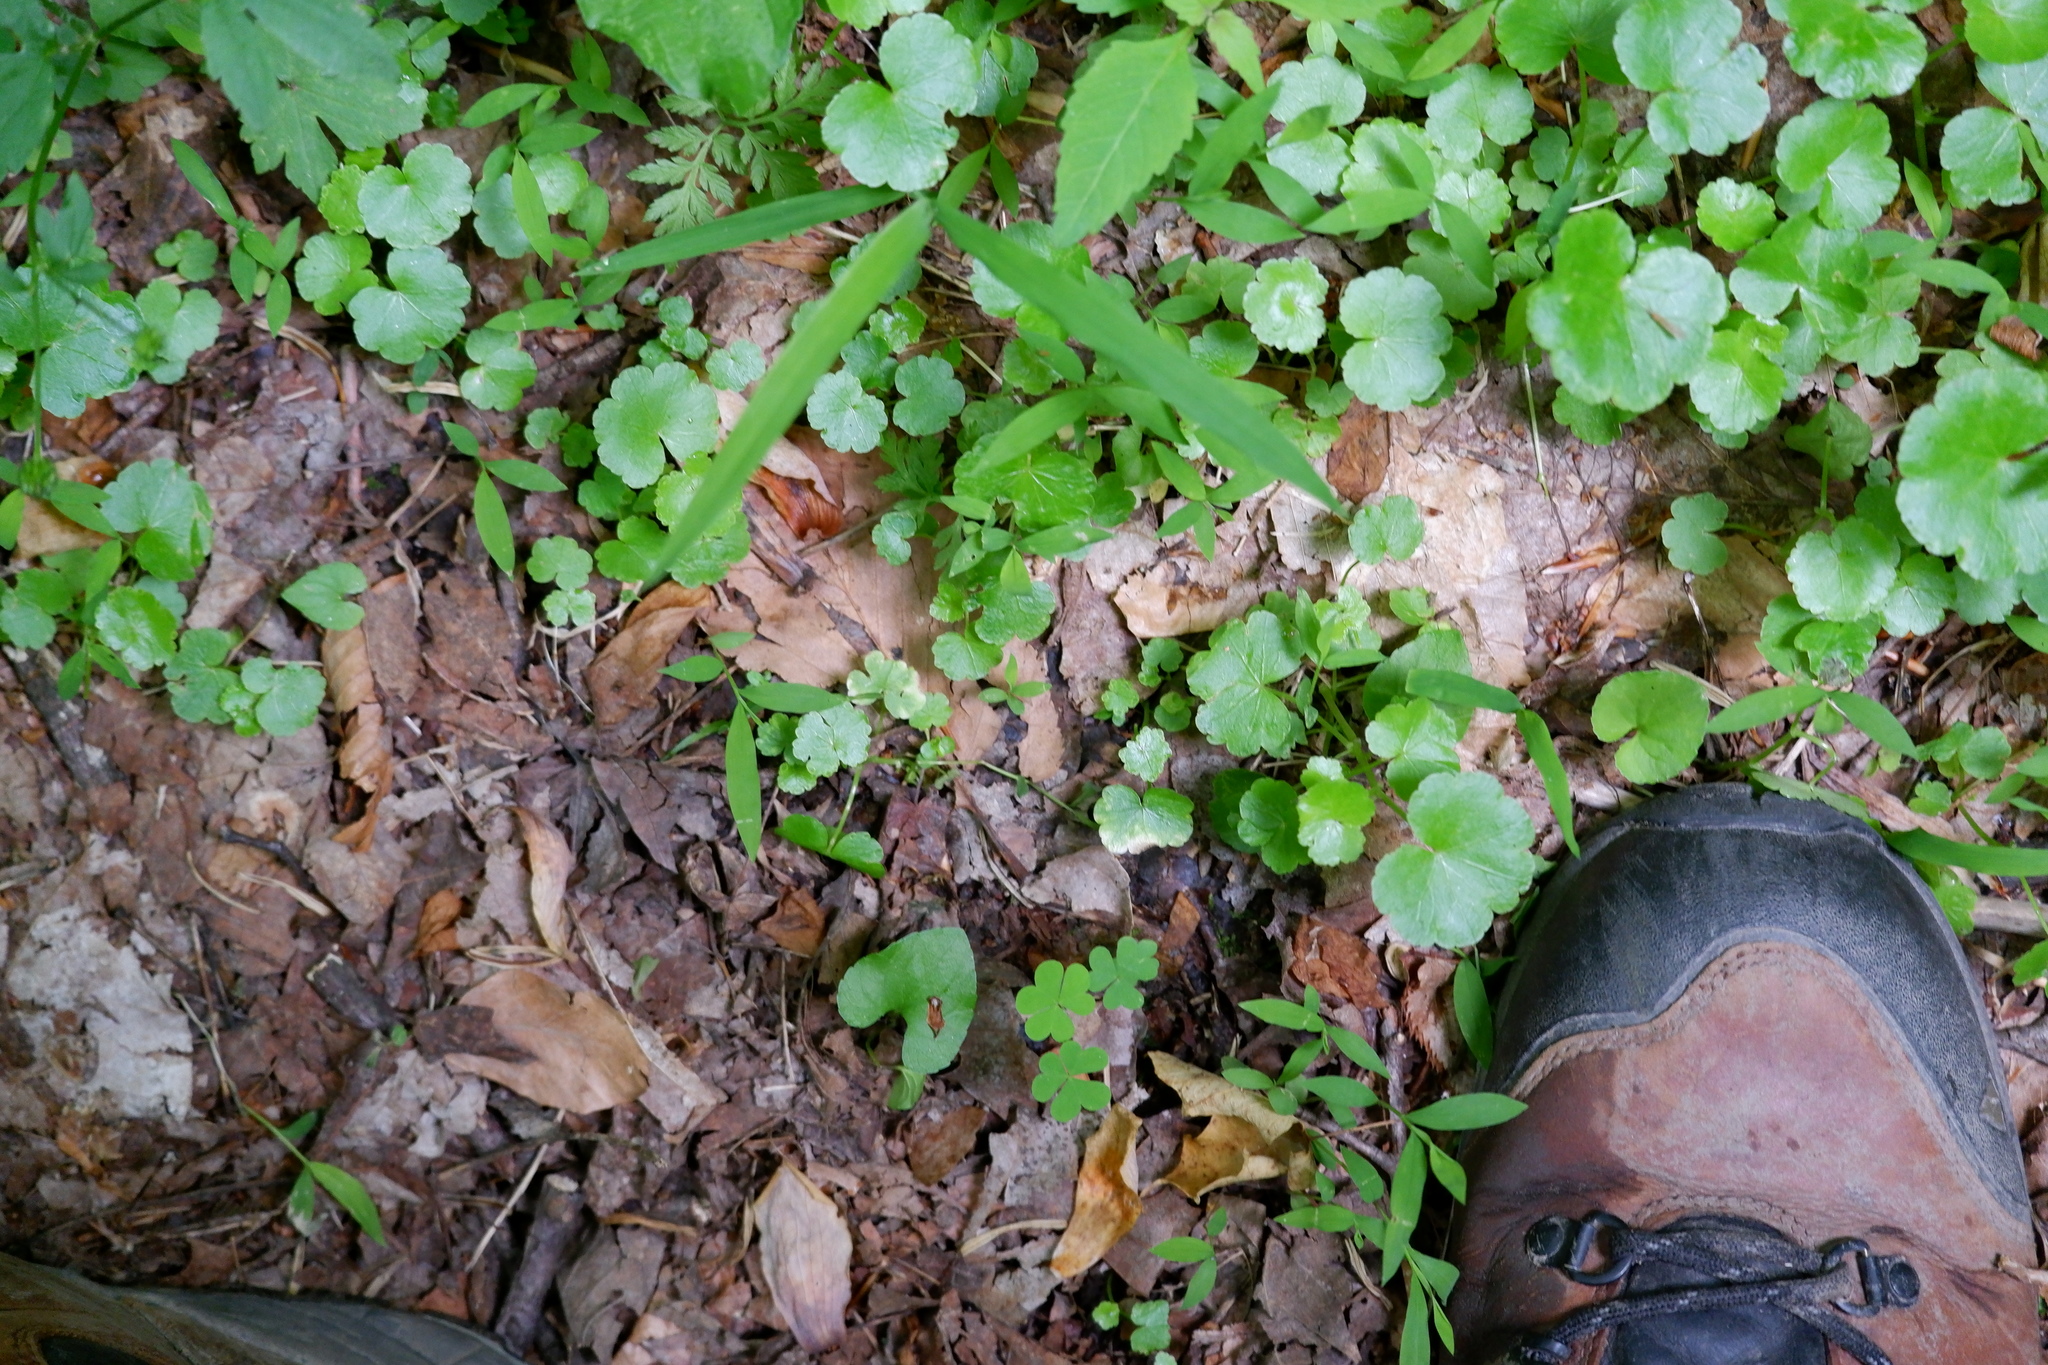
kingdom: Plantae
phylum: Tracheophyta
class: Magnoliopsida
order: Apiales
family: Araliaceae
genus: Hydrocotyle
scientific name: Hydrocotyle americana
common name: American water-pennywort
